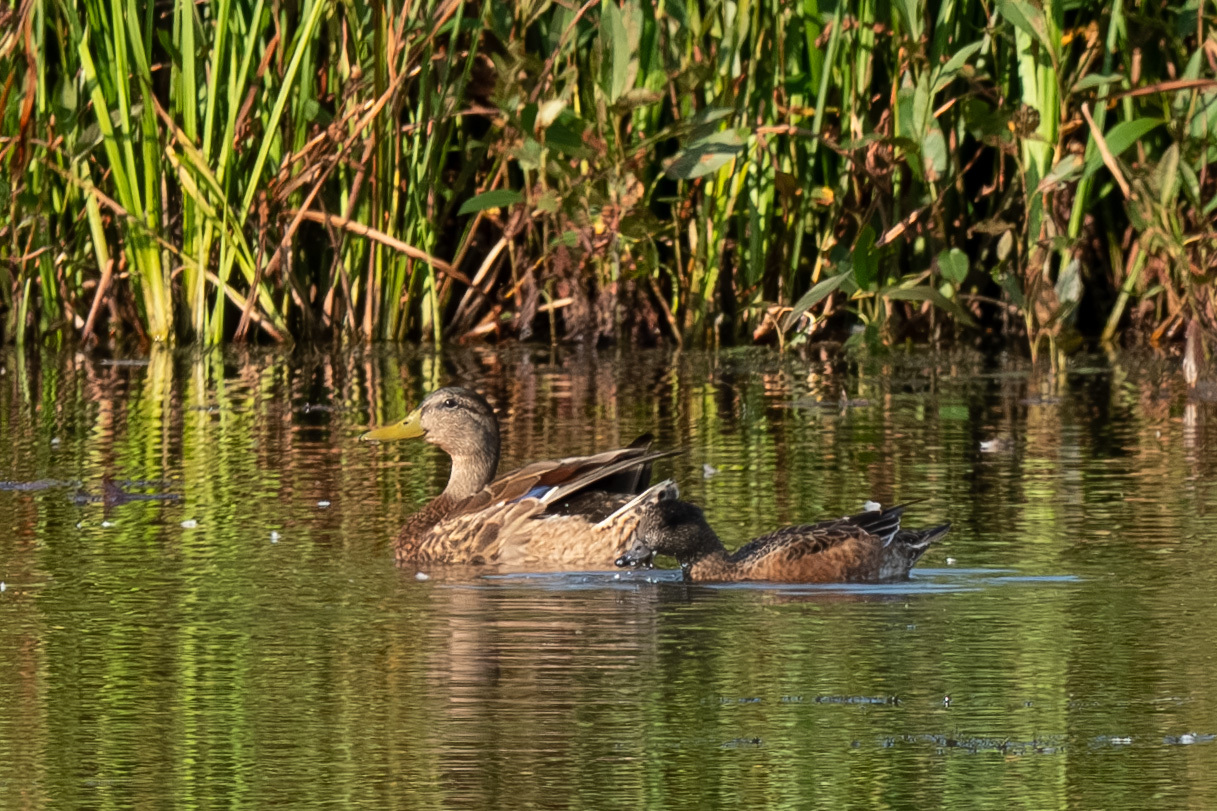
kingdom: Animalia
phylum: Chordata
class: Aves
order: Anseriformes
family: Anatidae
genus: Mareca
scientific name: Mareca americana
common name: American wigeon
